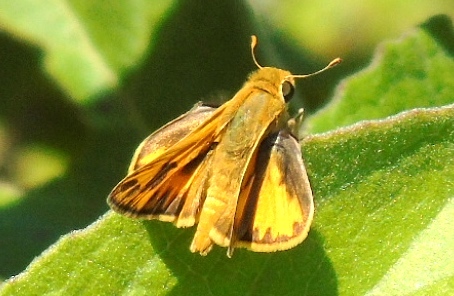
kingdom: Animalia
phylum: Arthropoda
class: Insecta
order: Lepidoptera
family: Hesperiidae
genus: Hylephila
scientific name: Hylephila phyleus
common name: Fiery skipper
